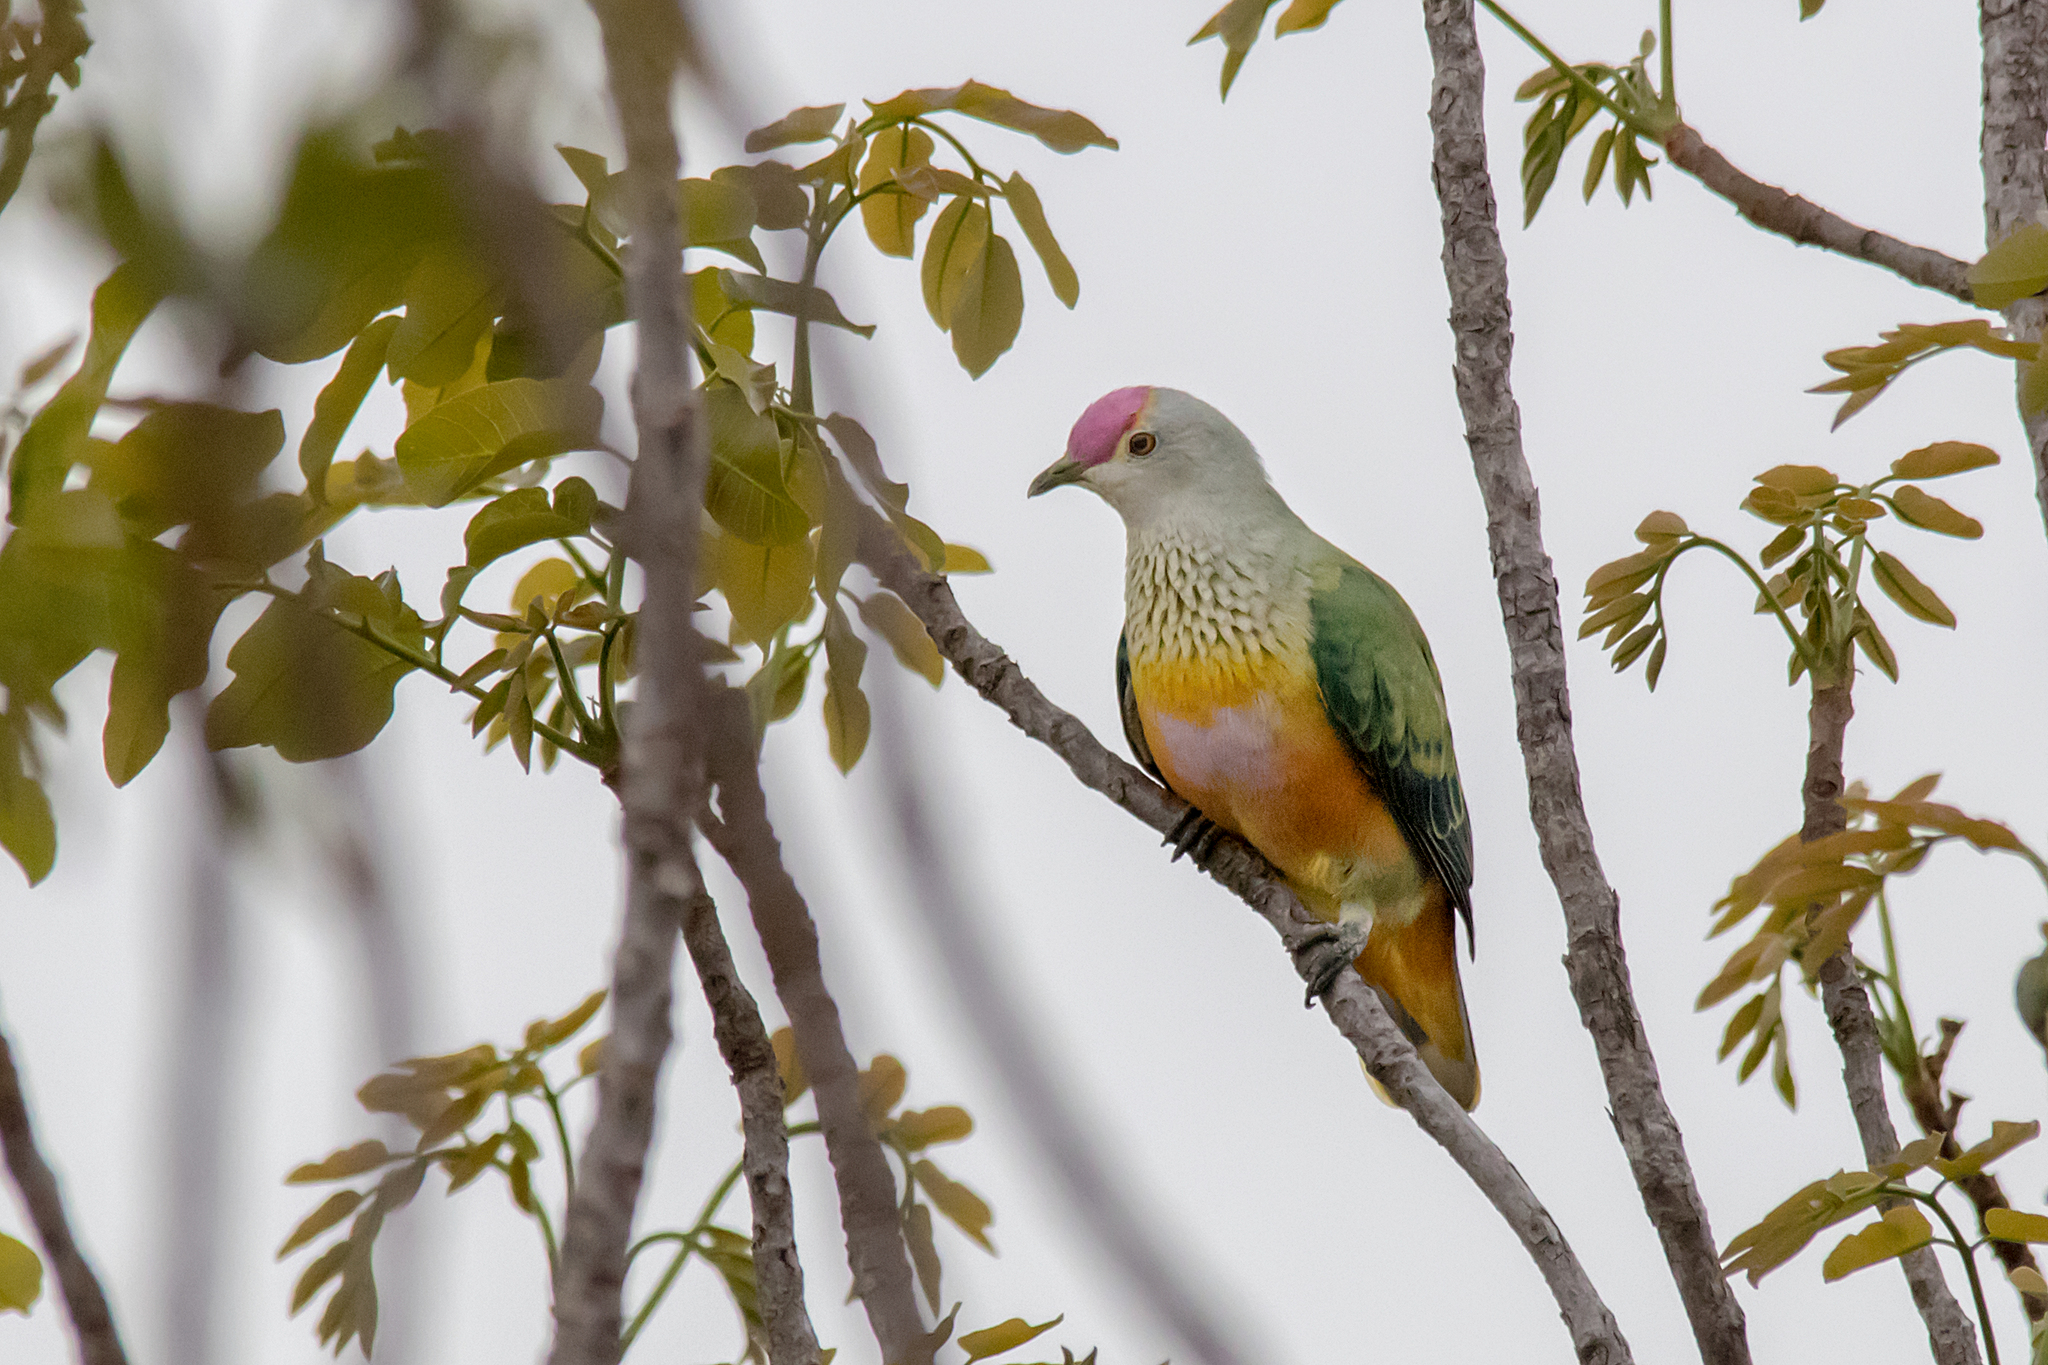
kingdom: Animalia
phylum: Chordata
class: Aves
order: Columbiformes
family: Columbidae
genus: Ptilinopus
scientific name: Ptilinopus regina
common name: Rose-crowned fruit dove
